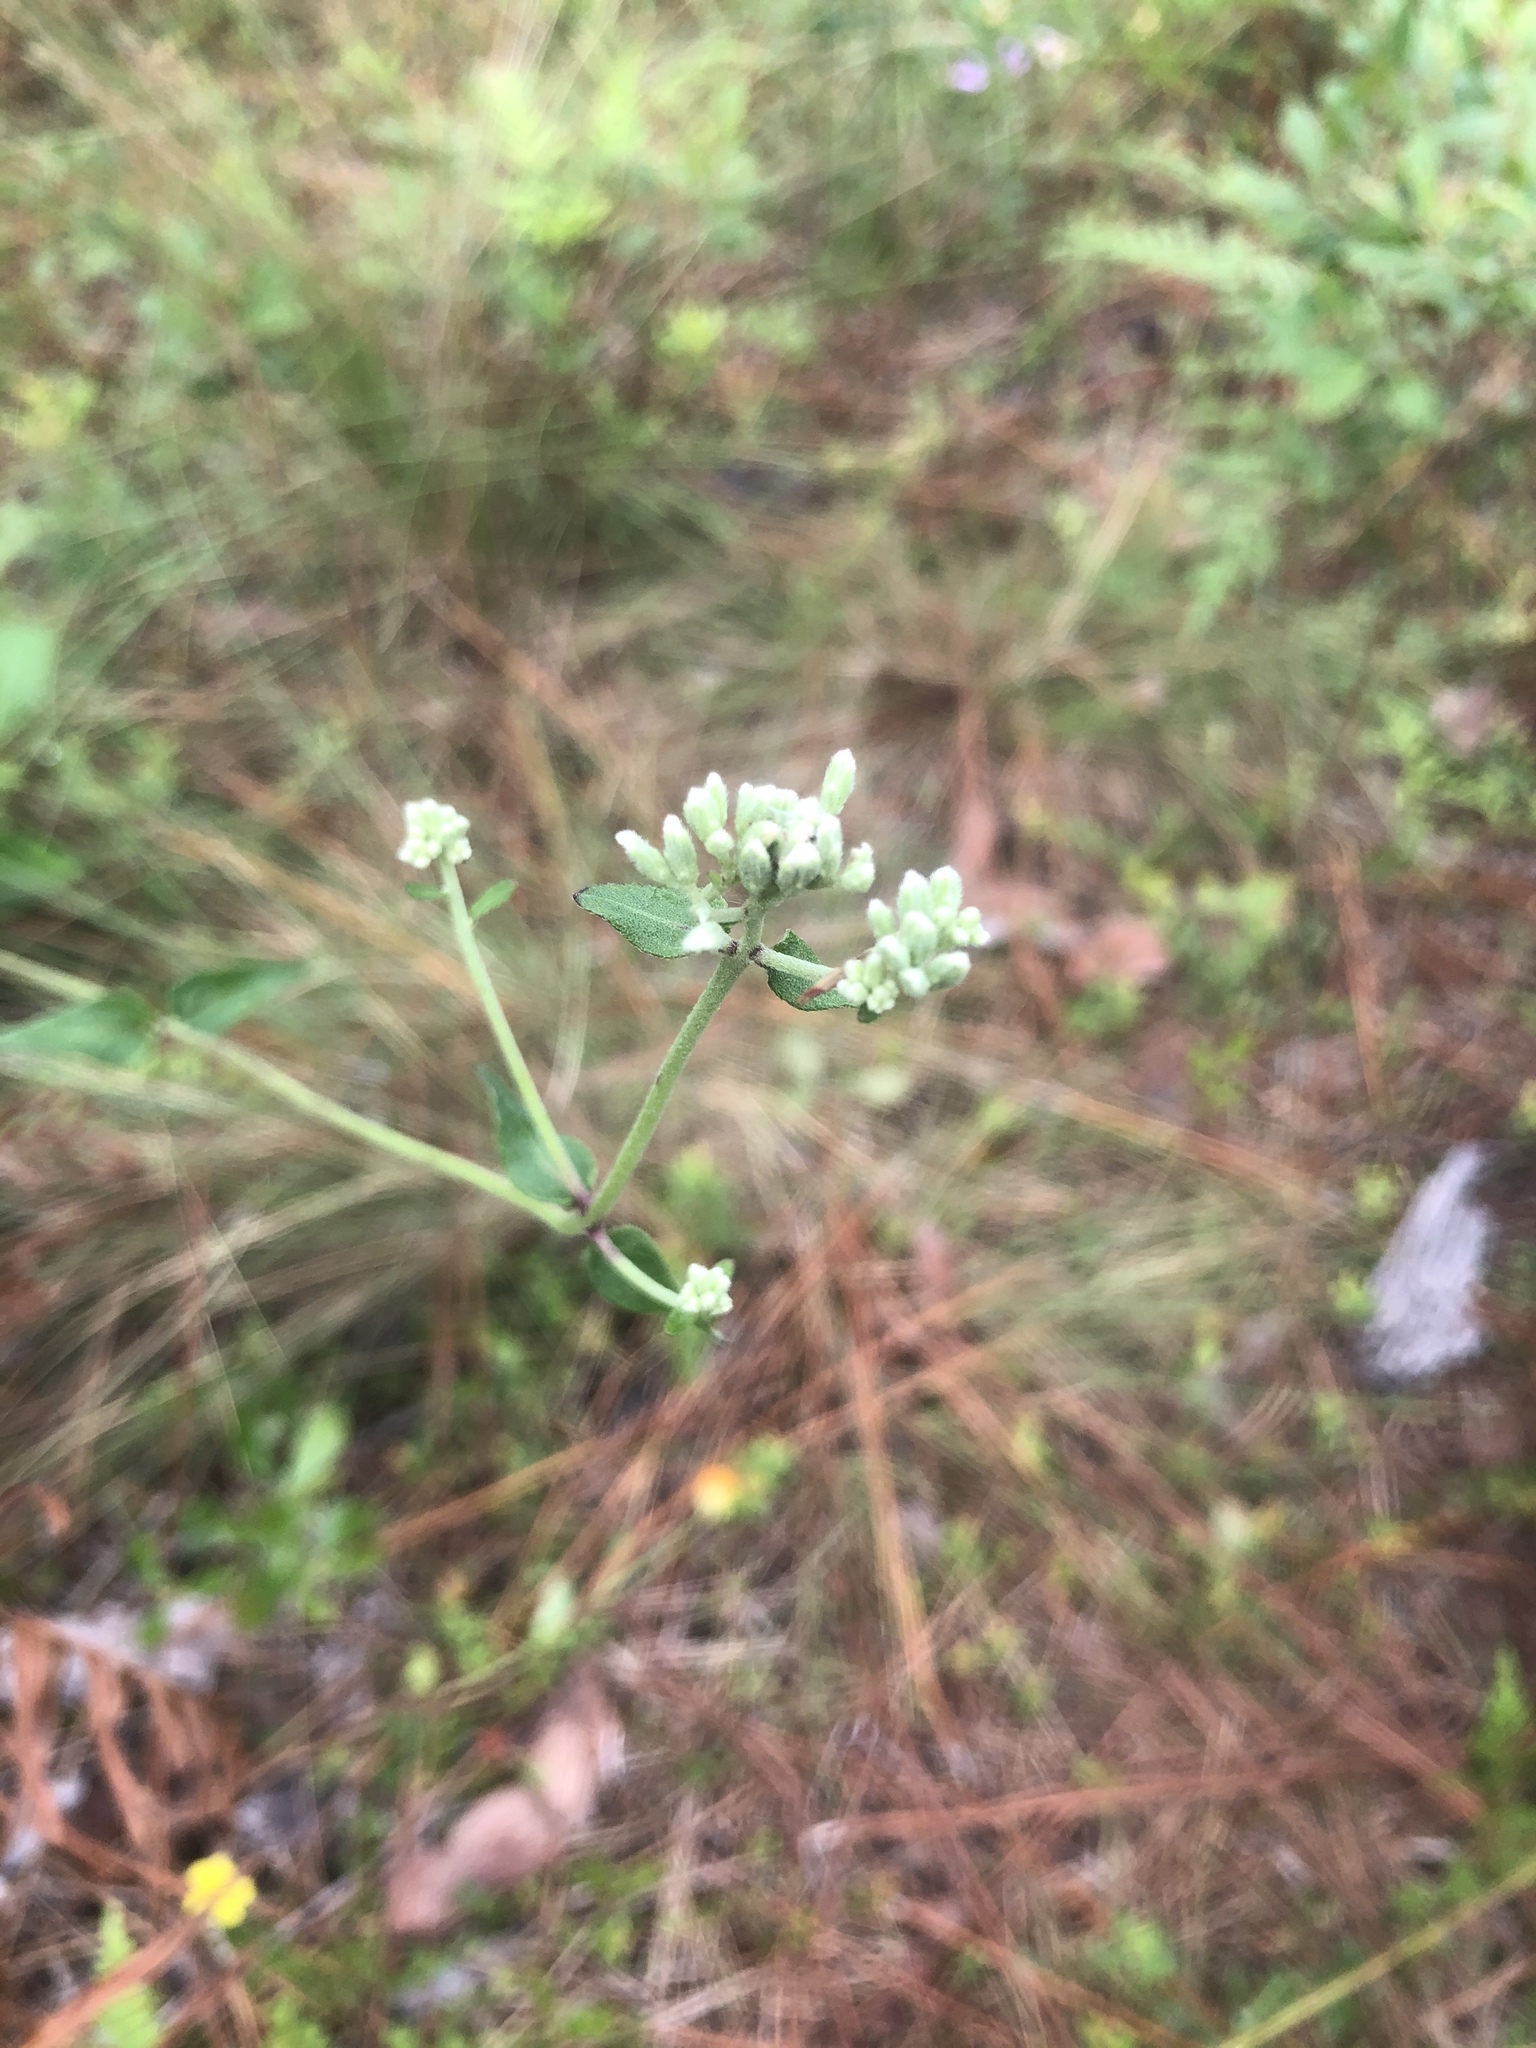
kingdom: Plantae
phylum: Tracheophyta
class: Magnoliopsida
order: Asterales
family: Asteraceae
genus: Eupatorium
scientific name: Eupatorium pilosum
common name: Rough boneset
